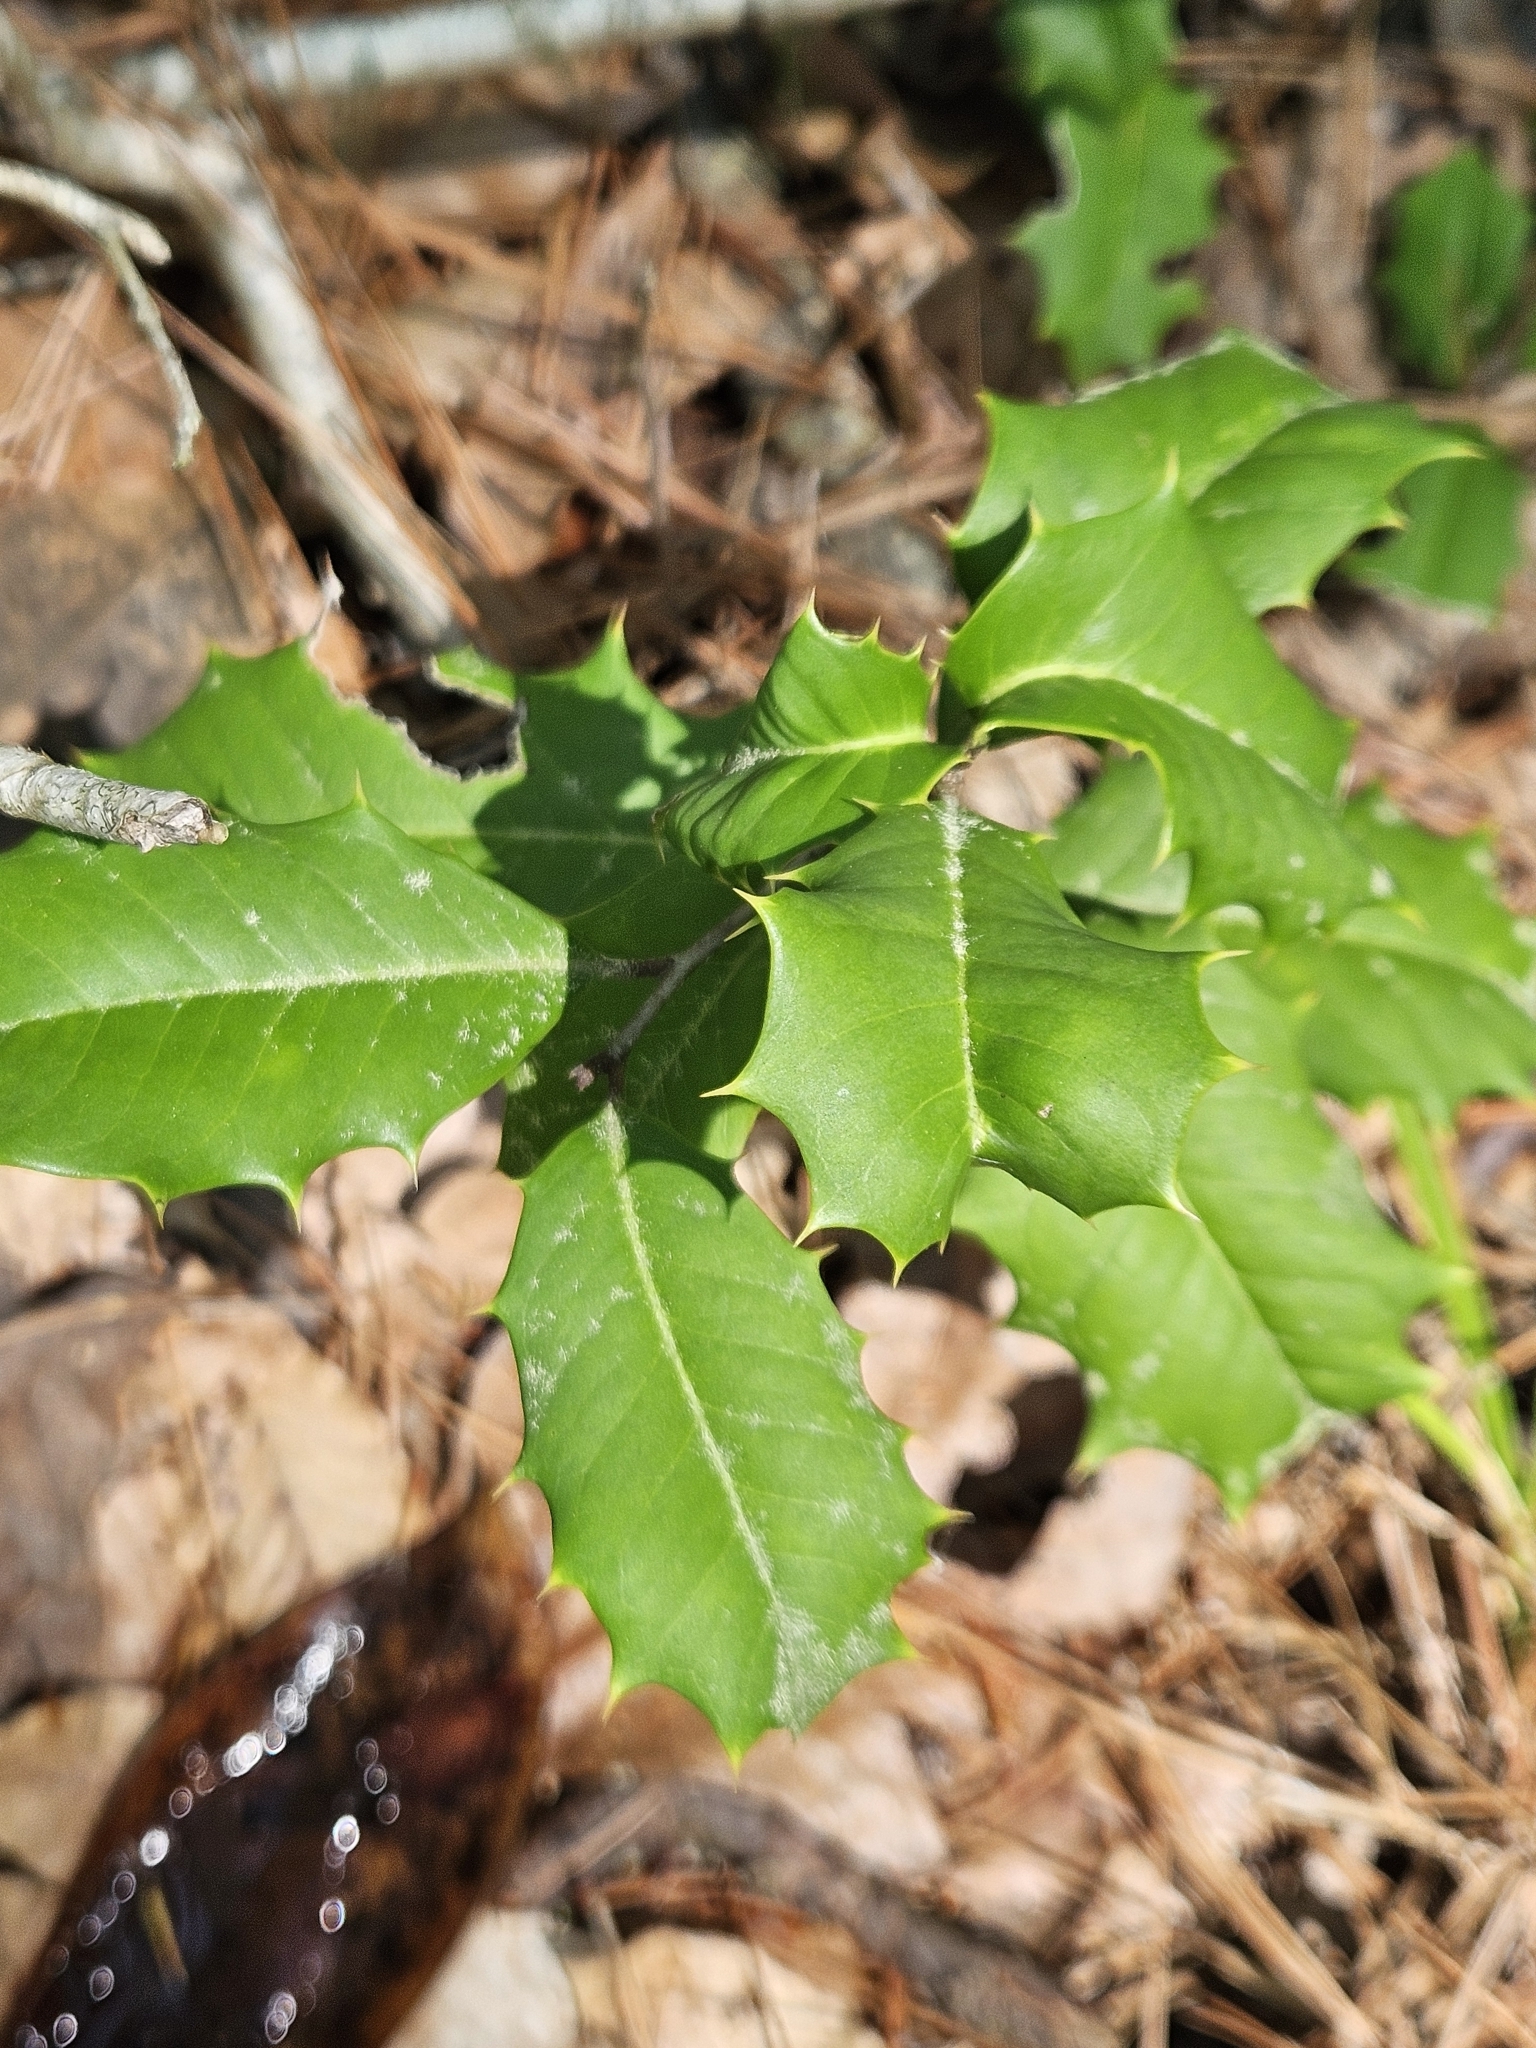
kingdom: Plantae
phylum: Tracheophyta
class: Magnoliopsida
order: Aquifoliales
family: Aquifoliaceae
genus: Ilex
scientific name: Ilex opaca
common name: American holly
